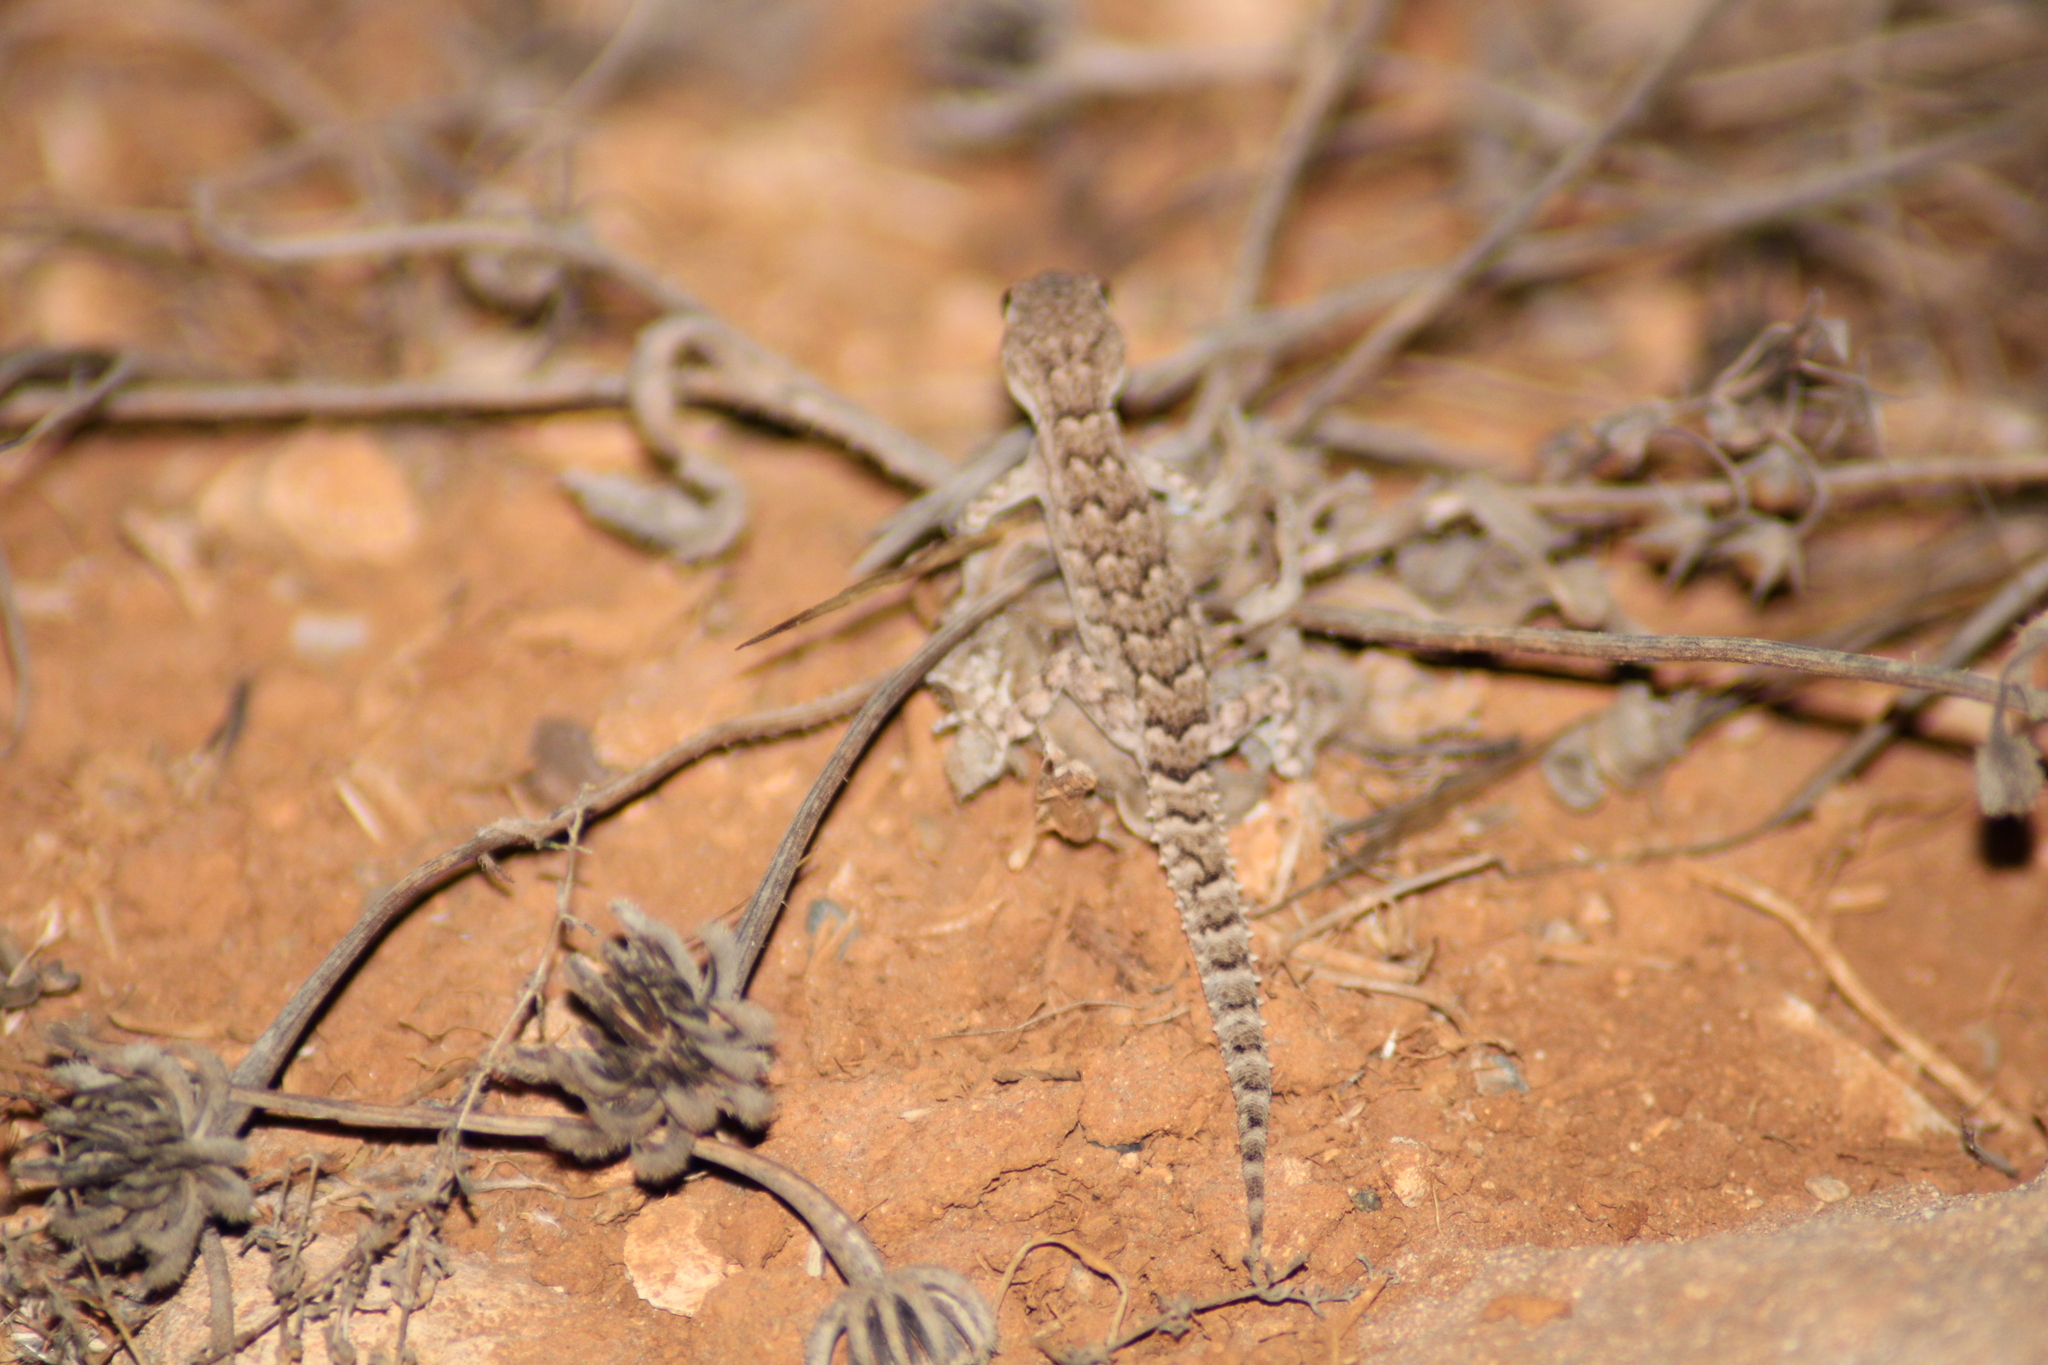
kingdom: Animalia
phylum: Chordata
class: Squamata
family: Gekkonidae
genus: Mediodactylus
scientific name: Mediodactylus orientalis
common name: Mediterranean thin-toed gecko
